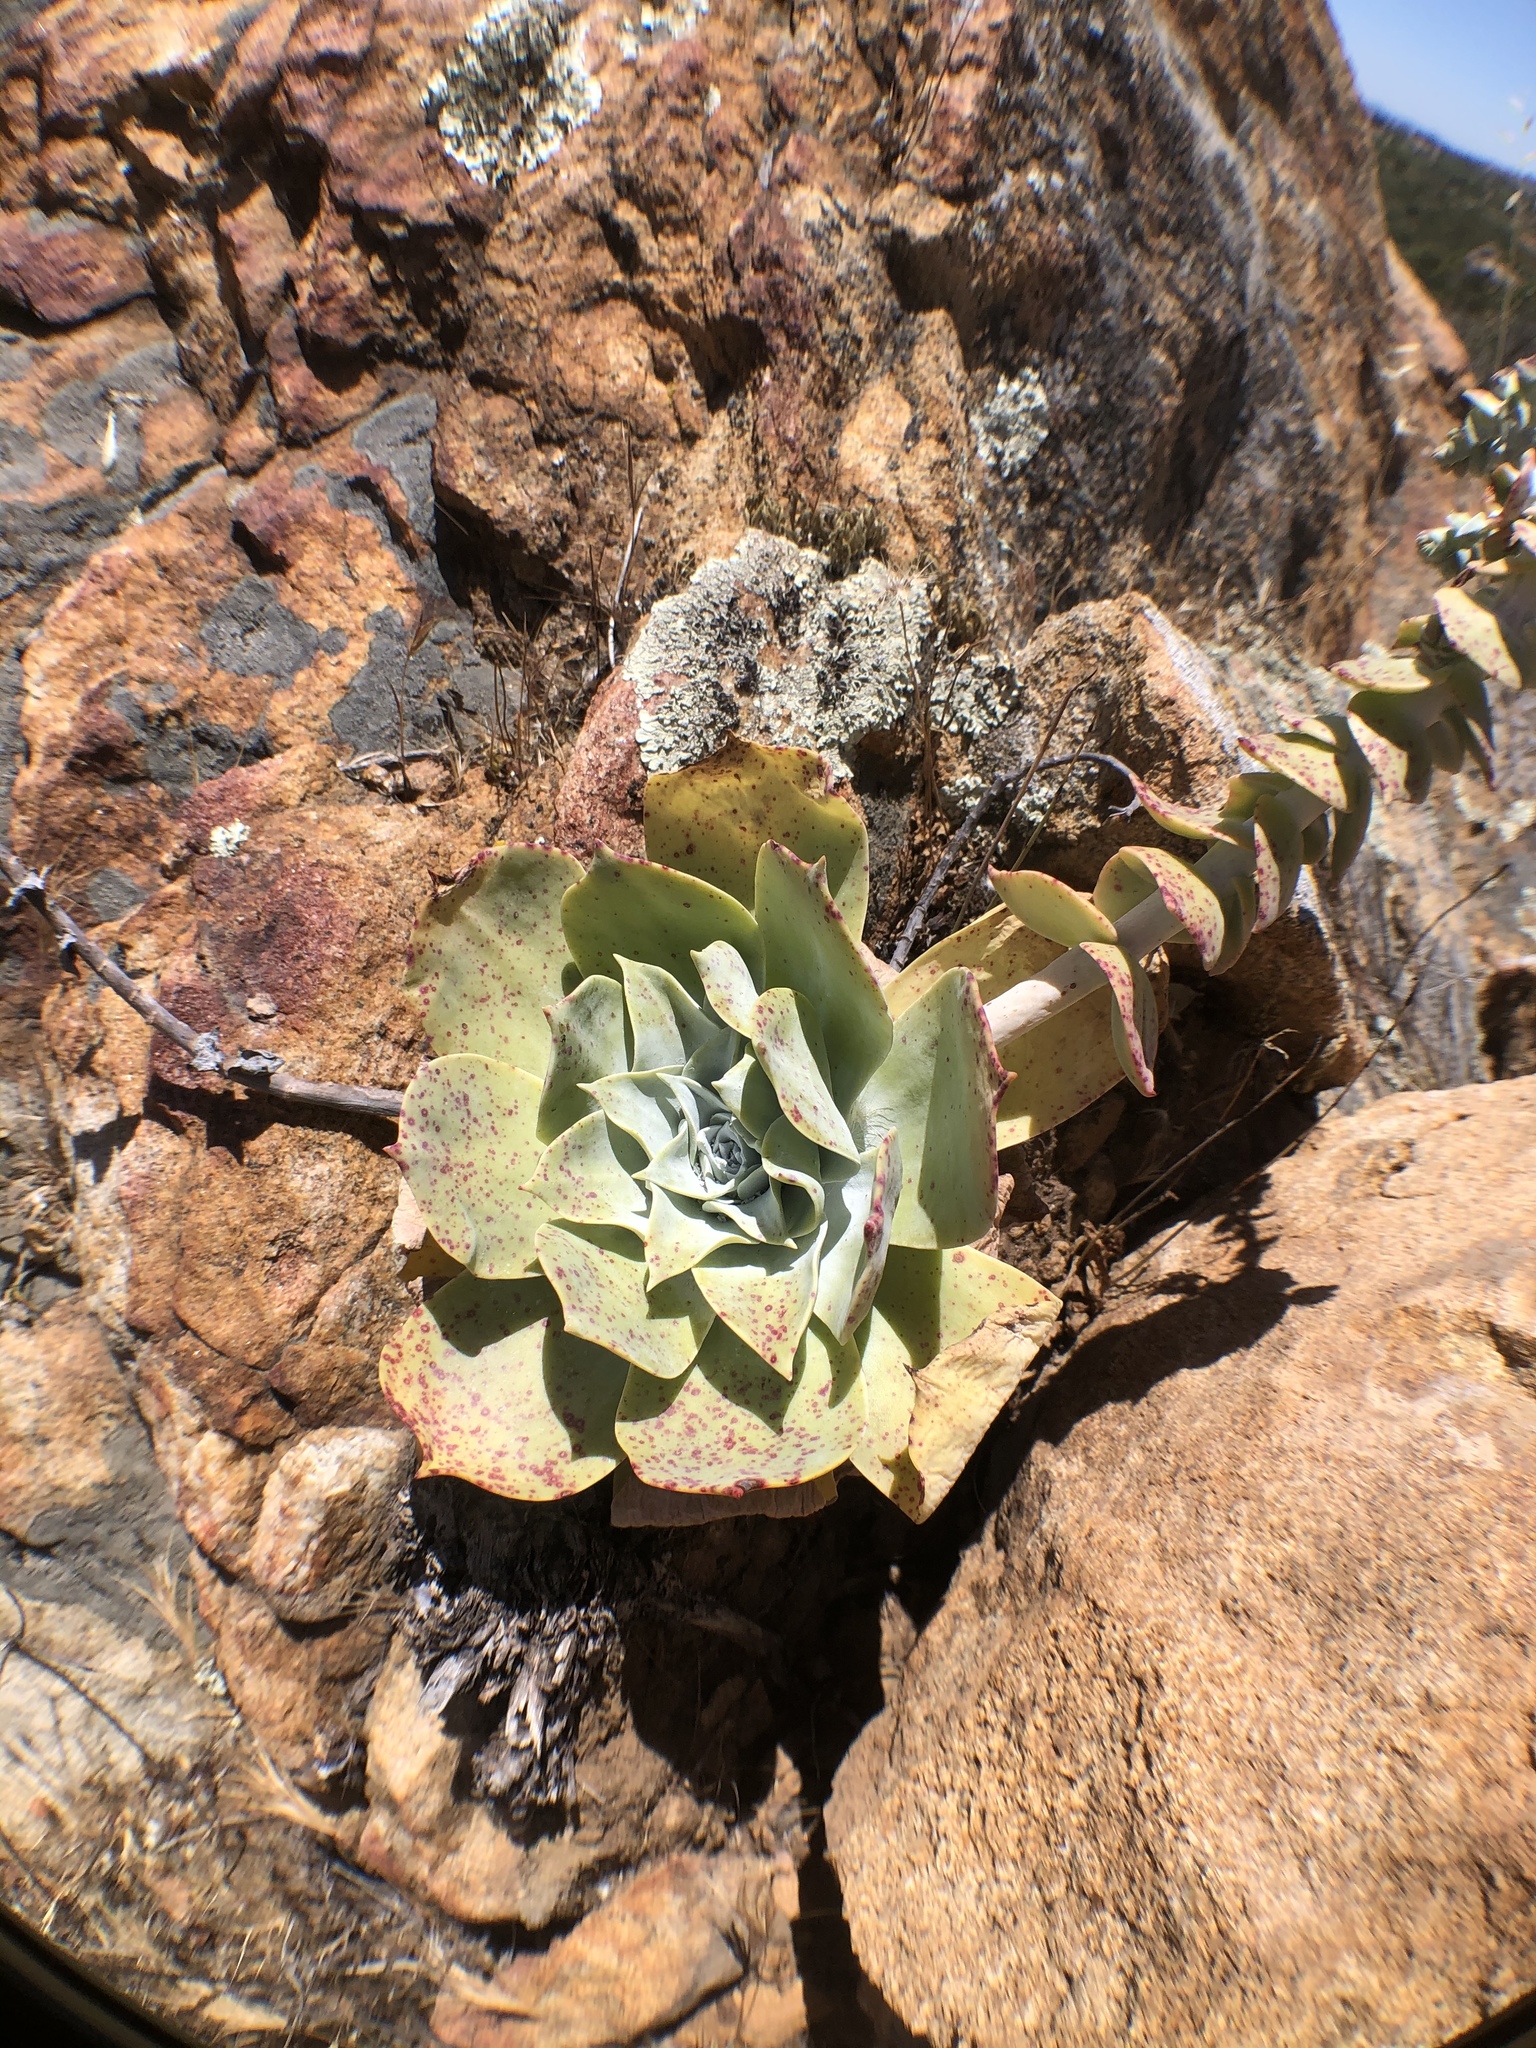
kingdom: Plantae
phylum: Tracheophyta
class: Magnoliopsida
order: Saxifragales
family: Crassulaceae
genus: Dudleya
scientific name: Dudleya pulverulenta
